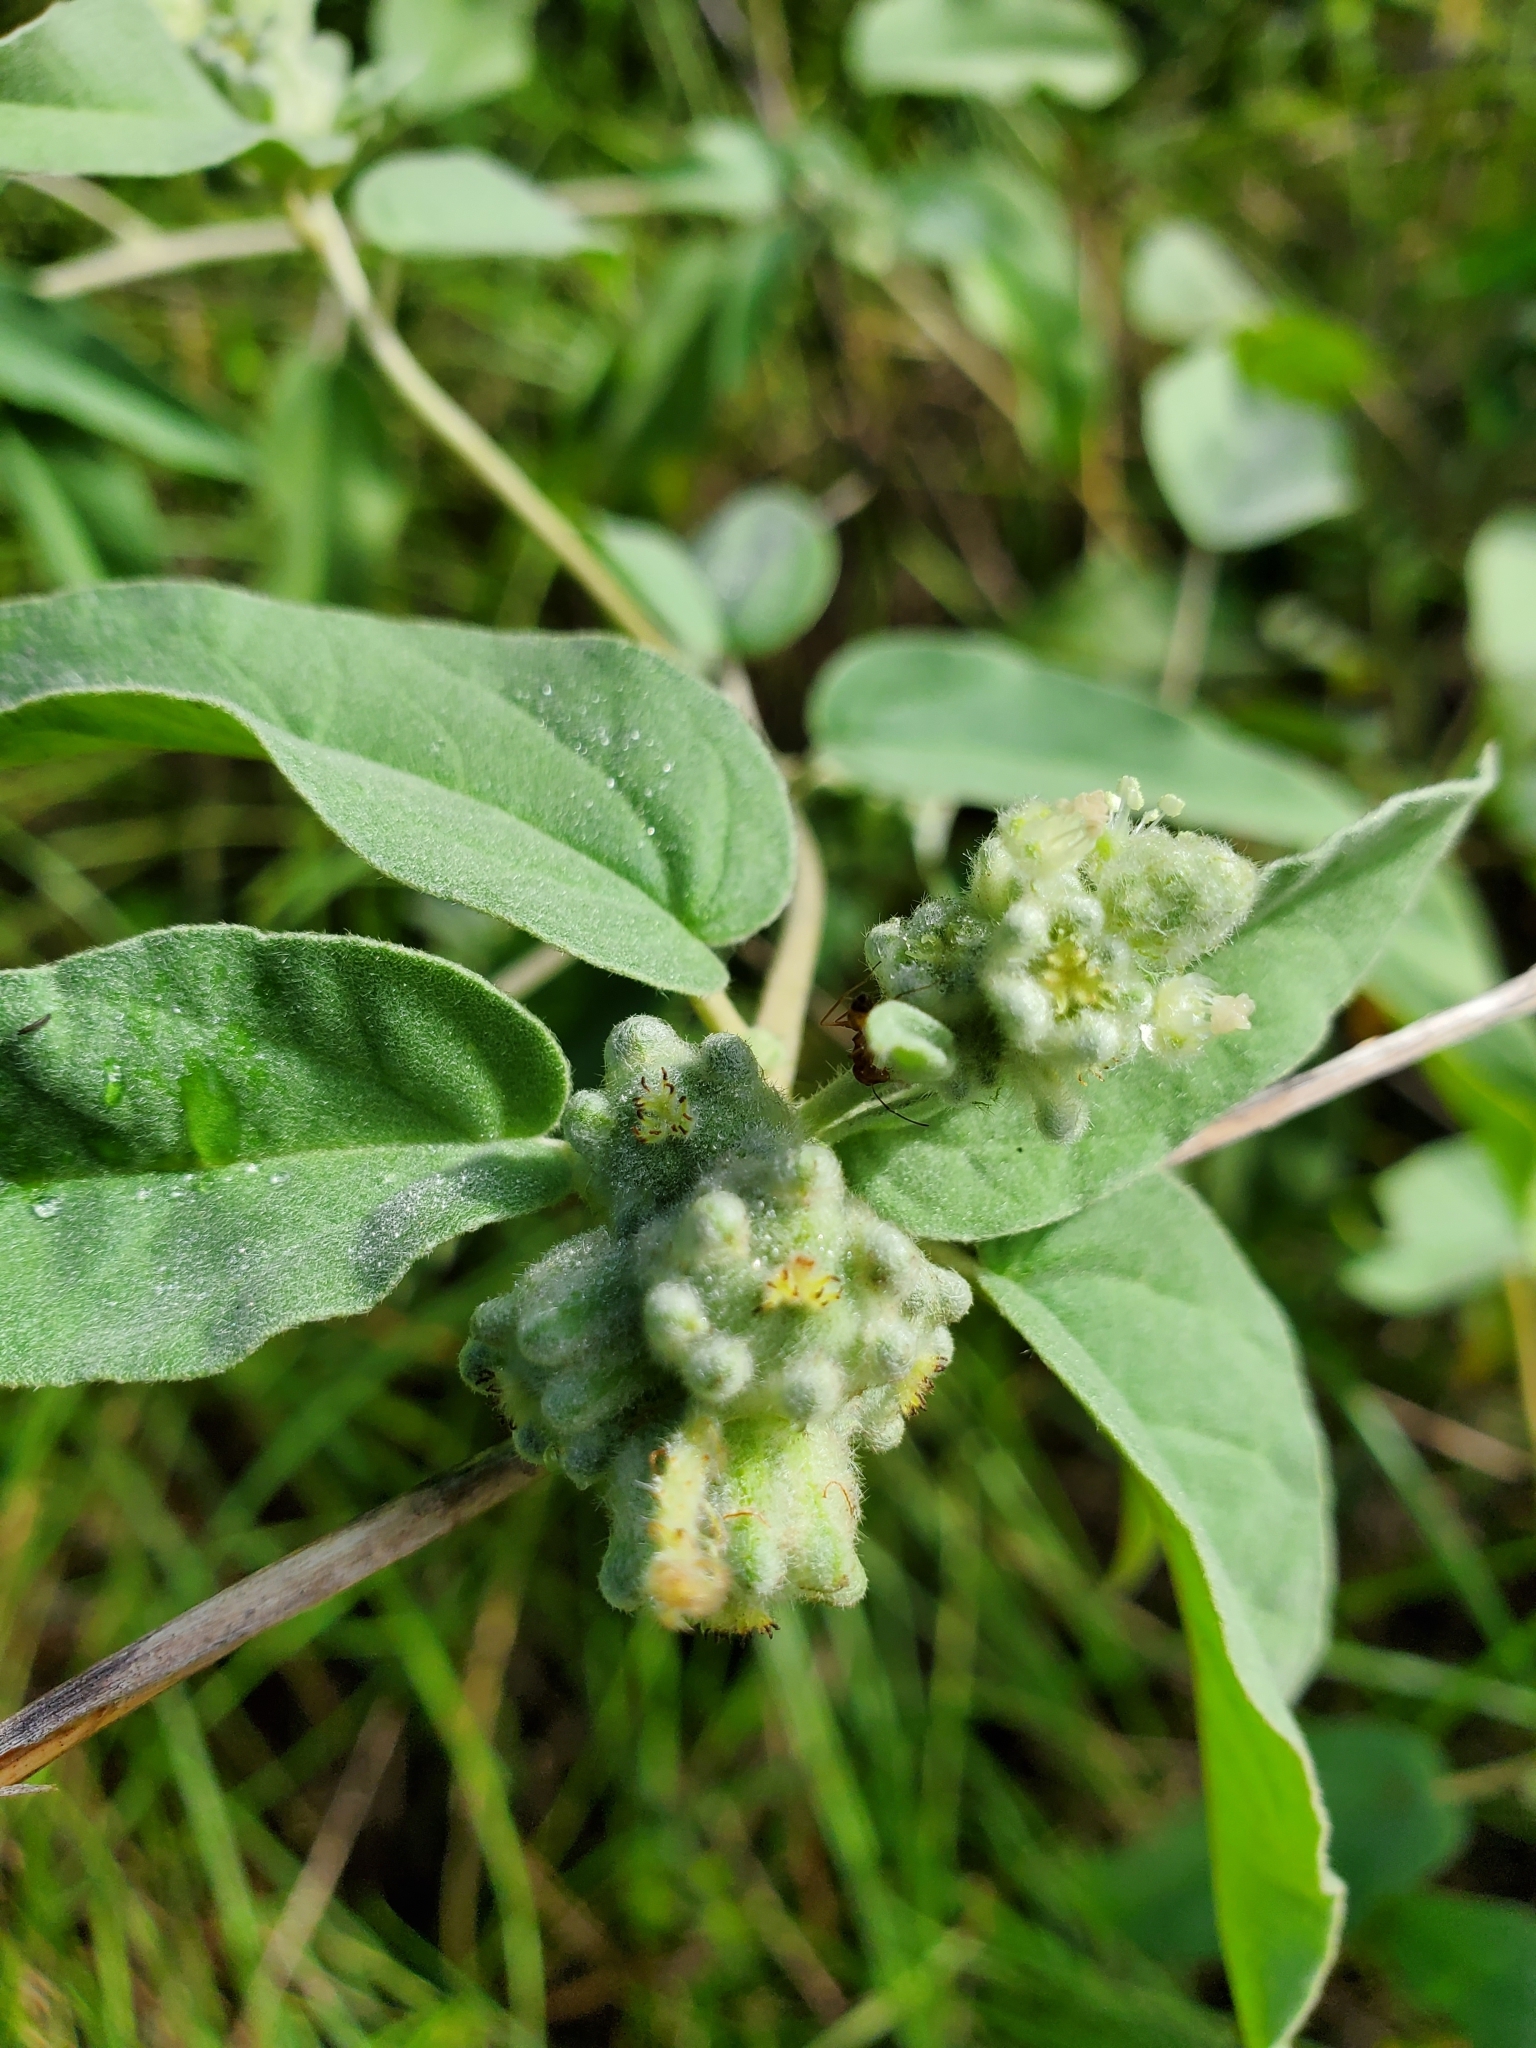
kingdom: Plantae
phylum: Tracheophyta
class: Magnoliopsida
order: Malpighiales
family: Euphorbiaceae
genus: Croton
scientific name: Croton lindheimeri
